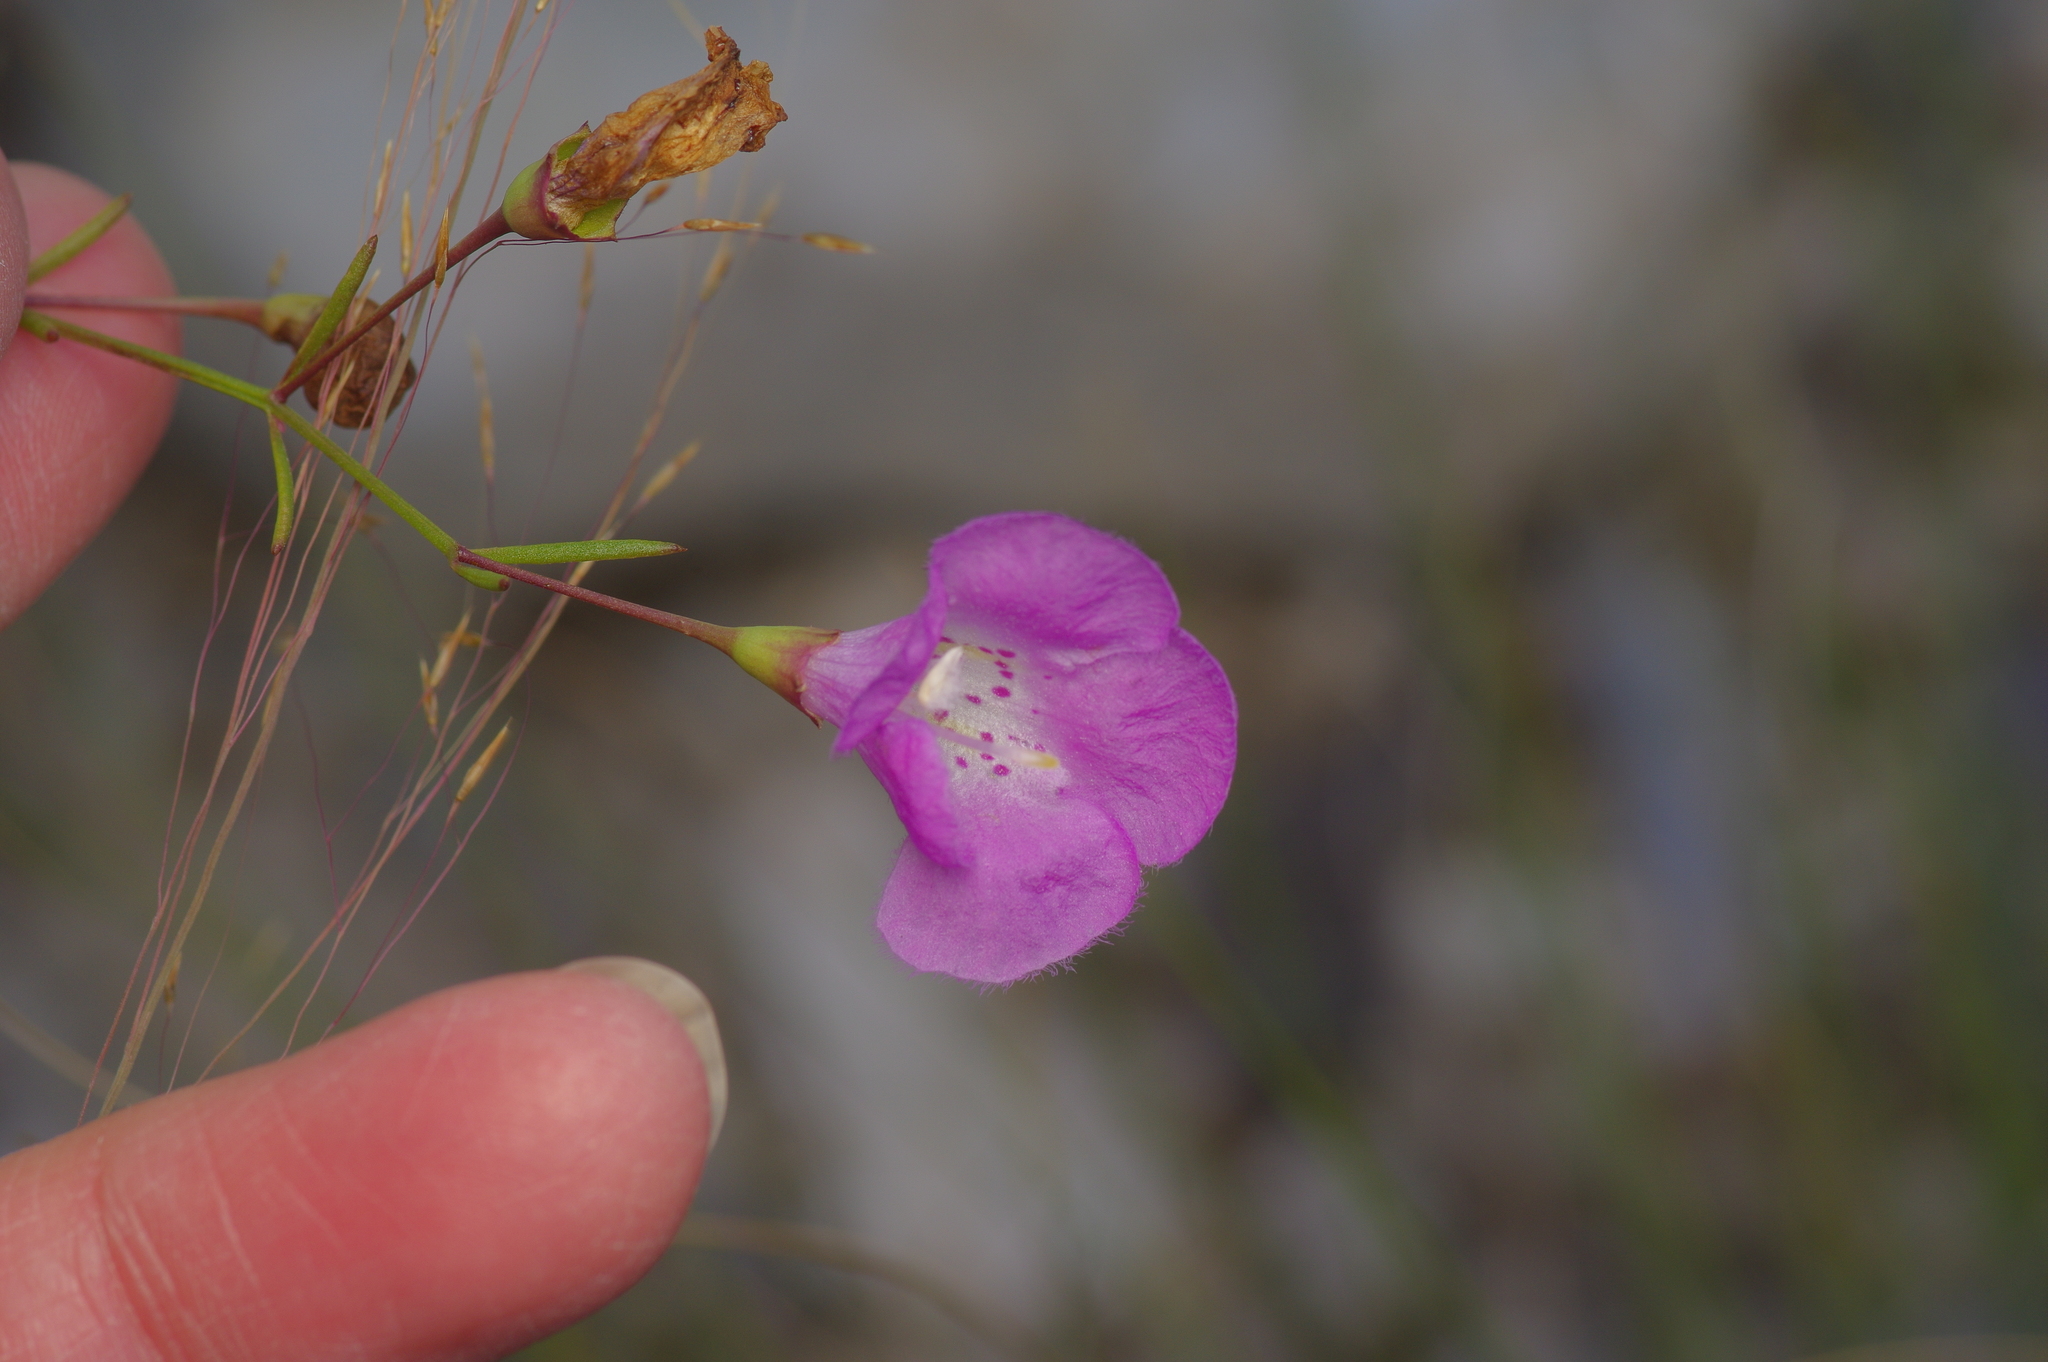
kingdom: Plantae
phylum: Tracheophyta
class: Magnoliopsida
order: Lamiales
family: Orobanchaceae
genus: Agalinis
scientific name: Agalinis edwardsiana
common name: Plateau-gerardia
